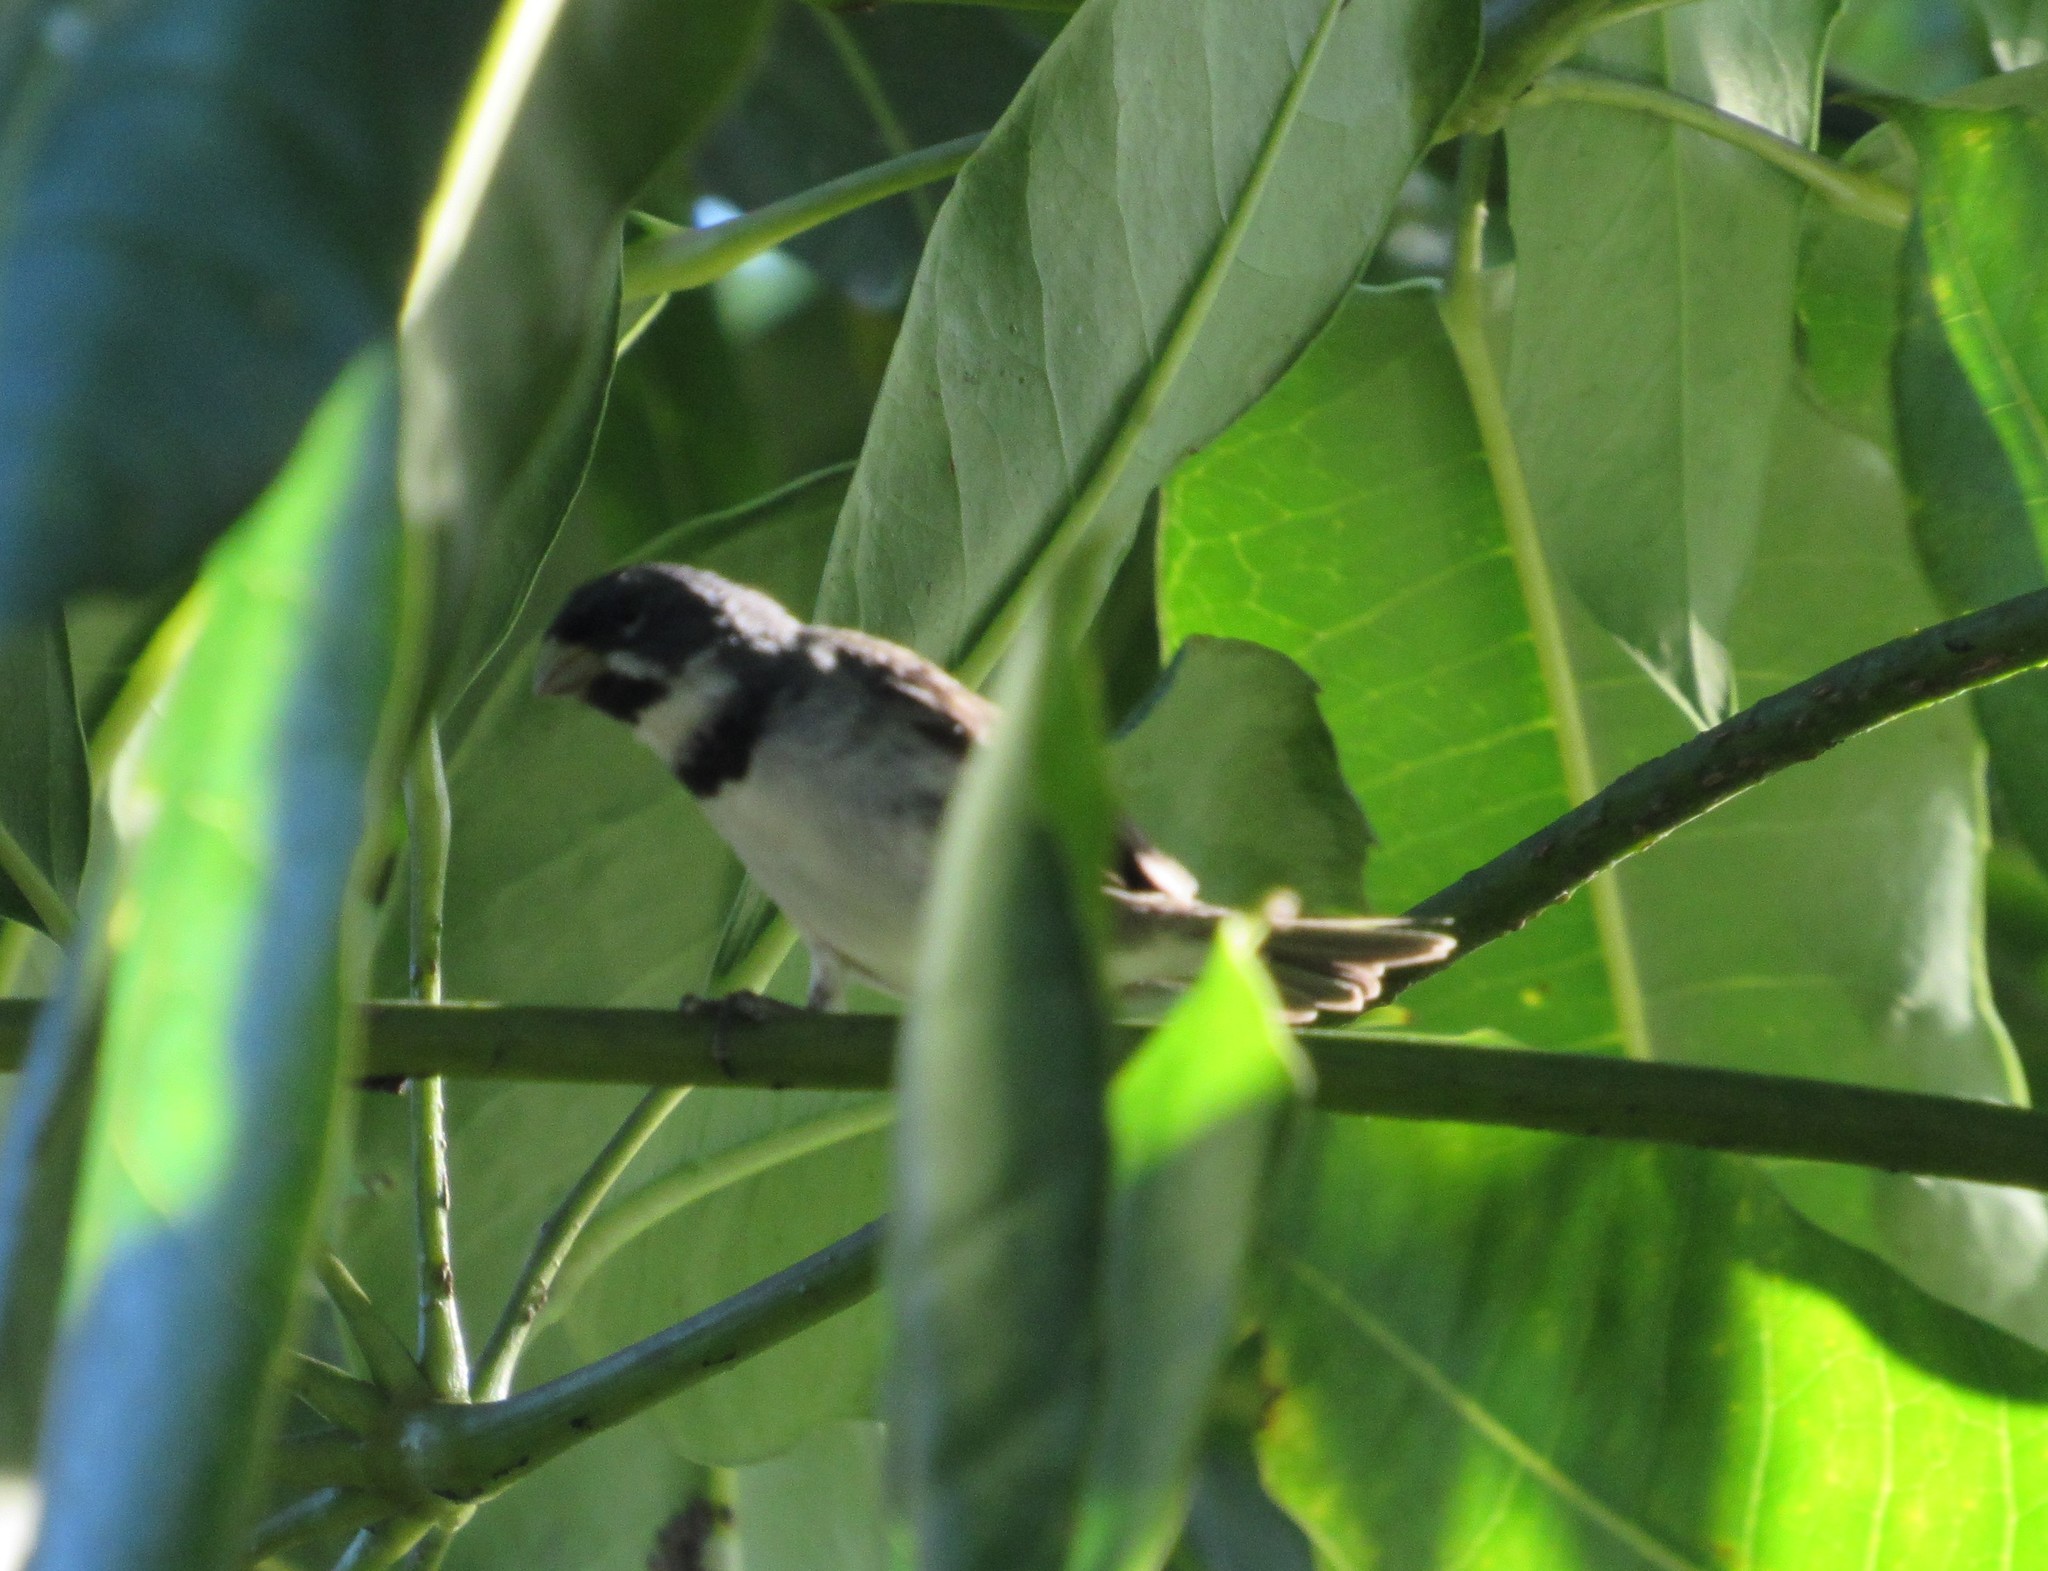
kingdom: Animalia
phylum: Chordata
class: Aves
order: Passeriformes
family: Thraupidae
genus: Sporophila
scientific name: Sporophila caerulescens
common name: Double-collared seedeater
